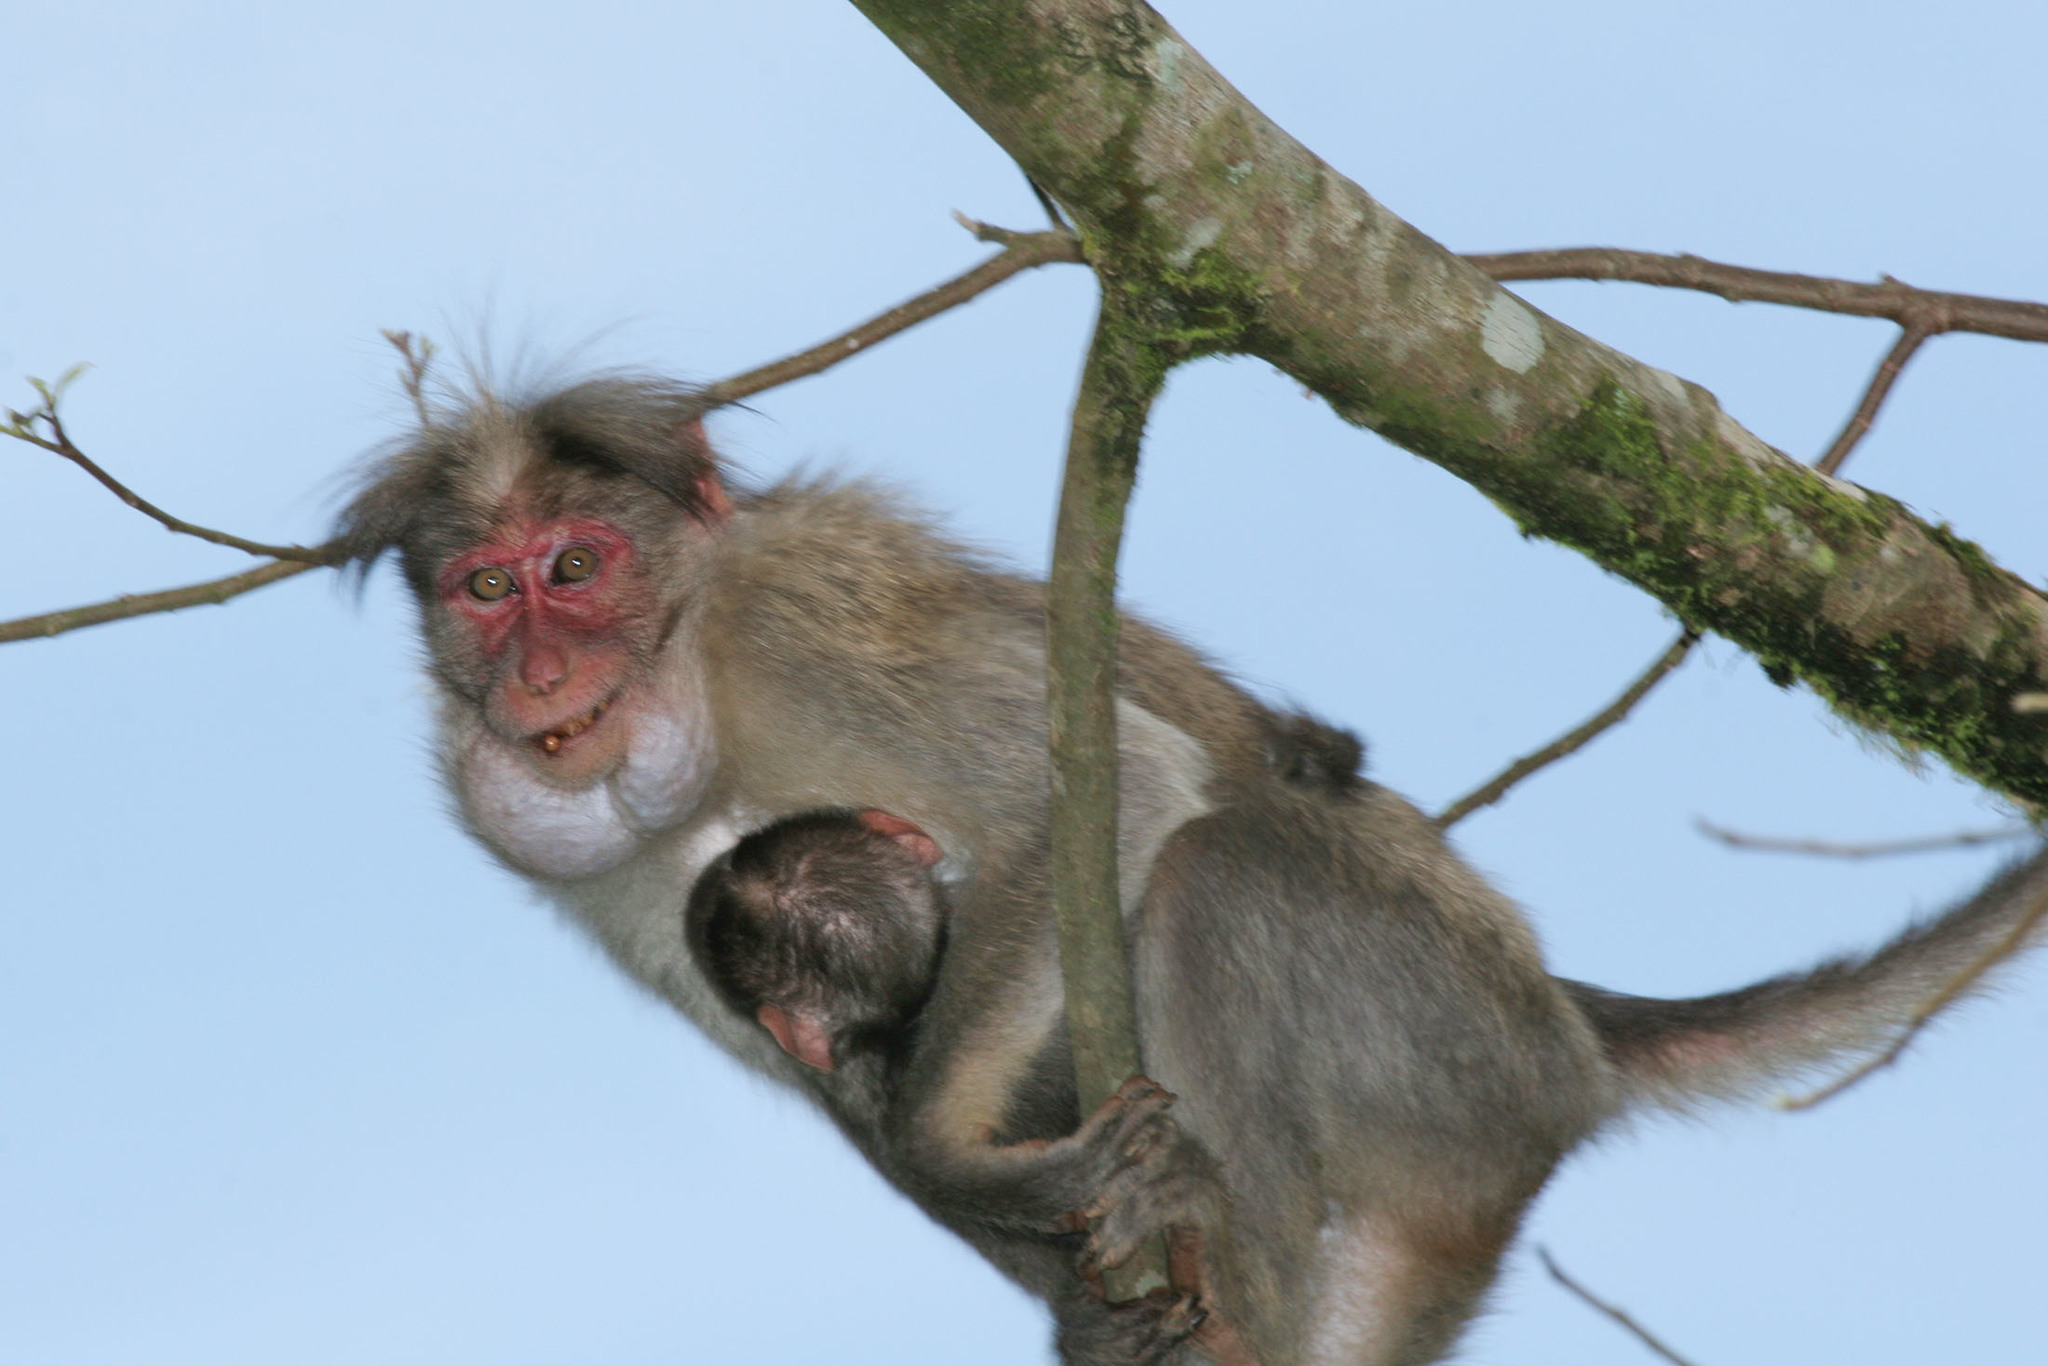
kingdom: Animalia
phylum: Chordata
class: Mammalia
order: Primates
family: Cercopithecidae
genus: Macaca
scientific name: Macaca radiata
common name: Bonnet macaque
